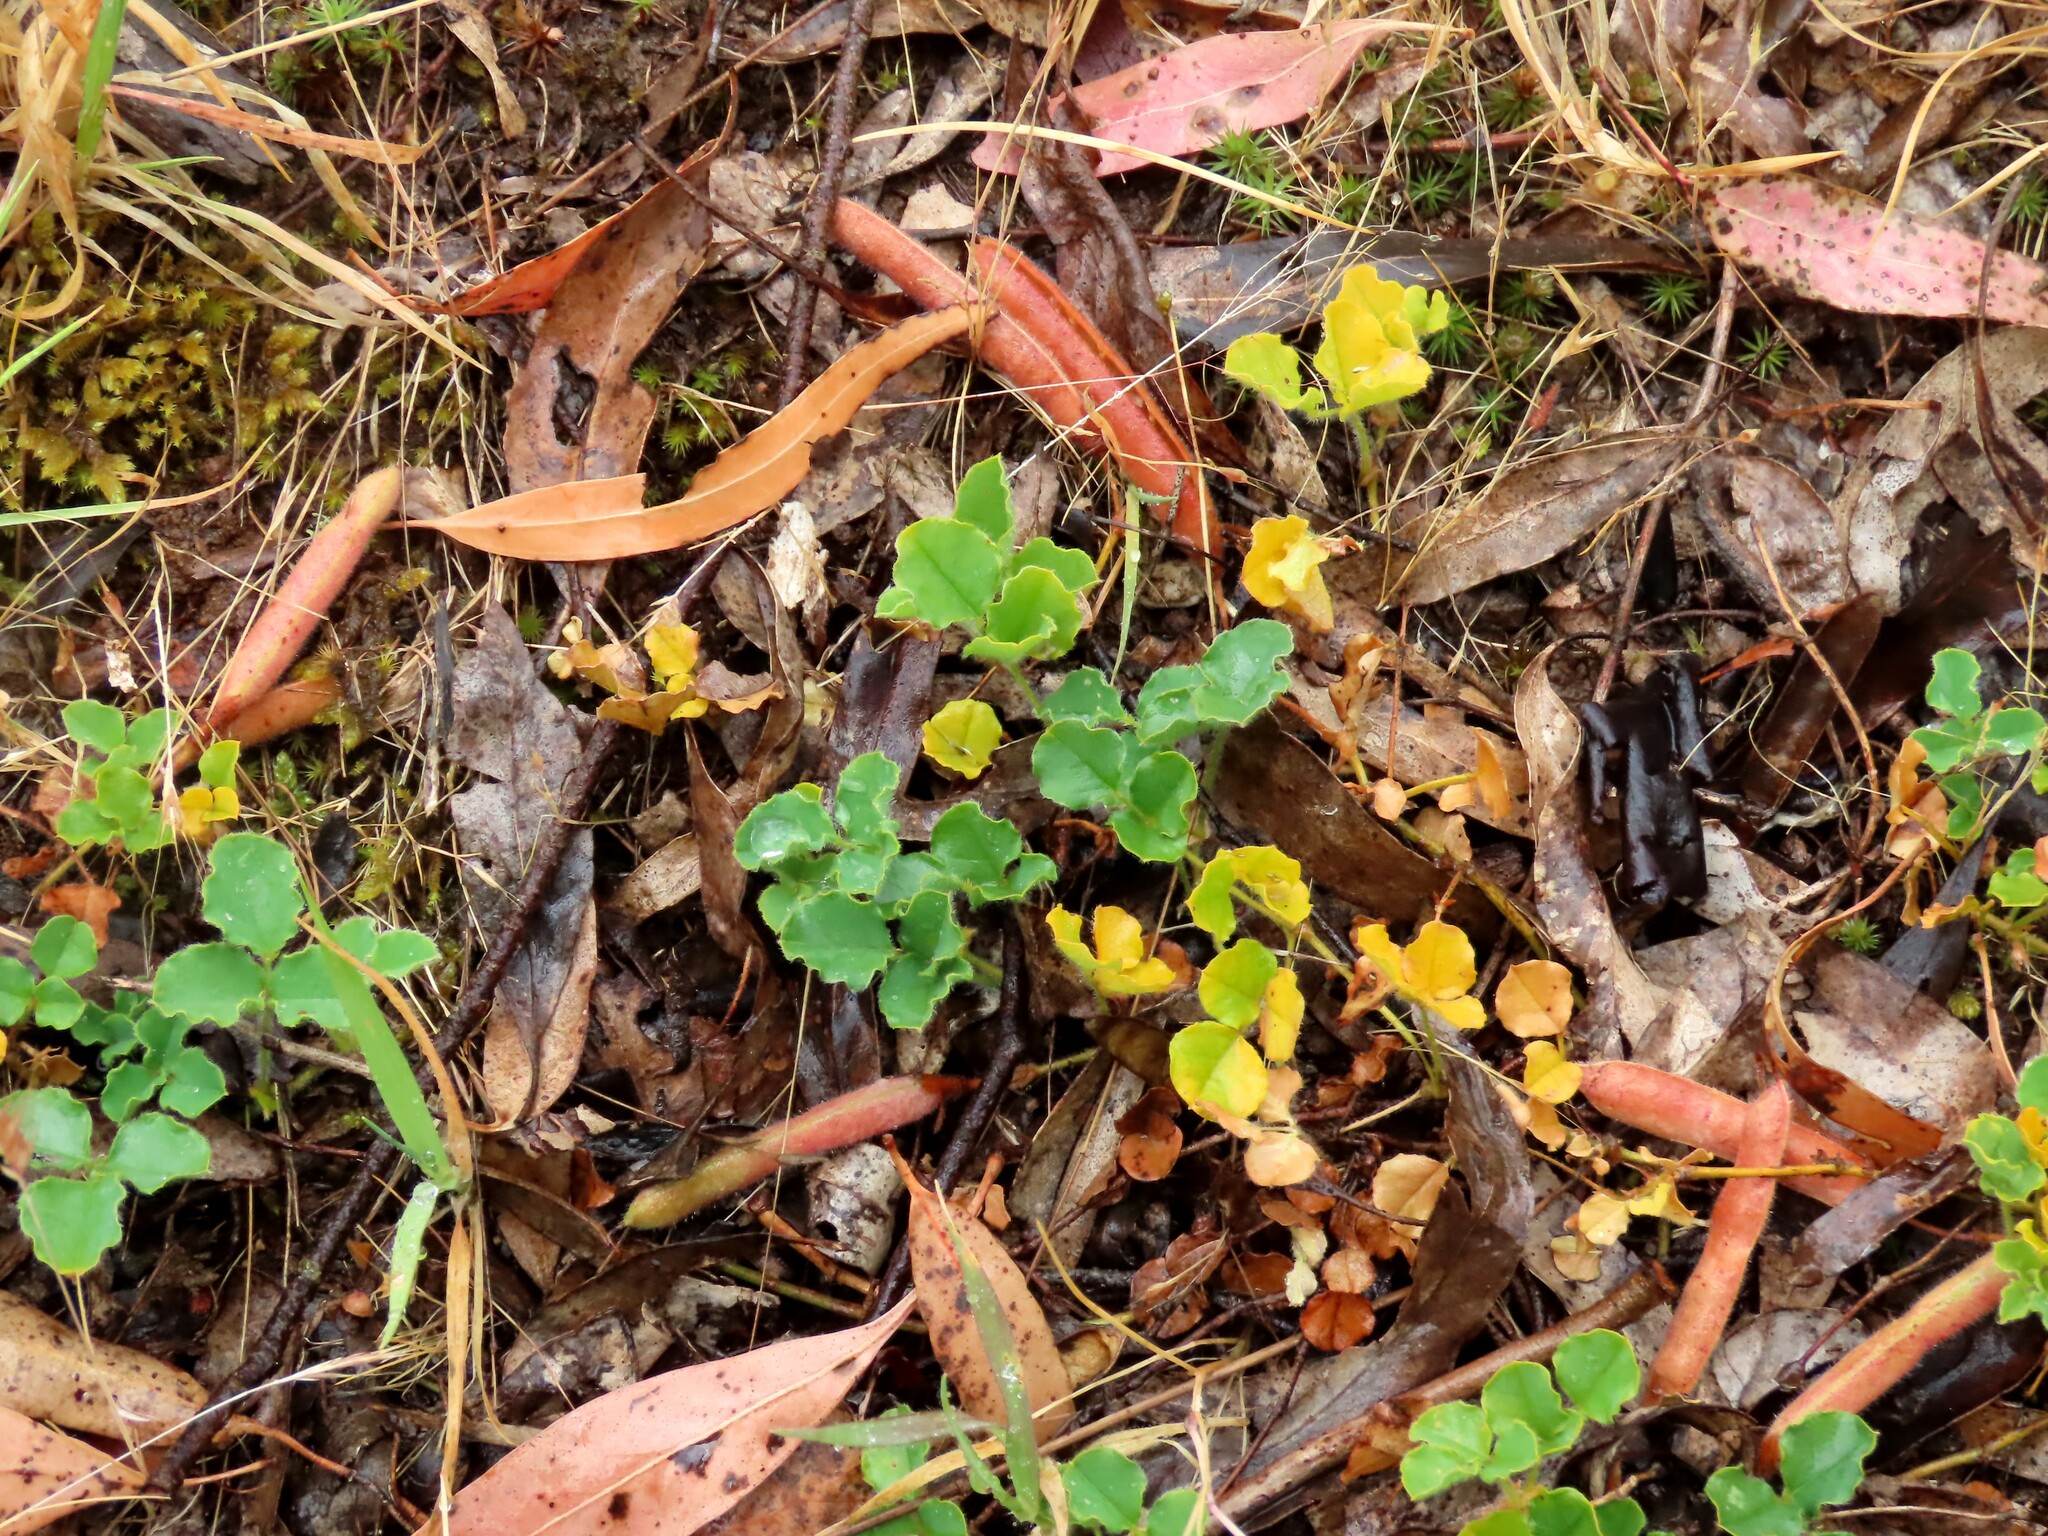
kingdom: Plantae
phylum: Tracheophyta
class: Magnoliopsida
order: Fabales
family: Fabaceae
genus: Kennedia
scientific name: Kennedia prostrata
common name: Running-postman
